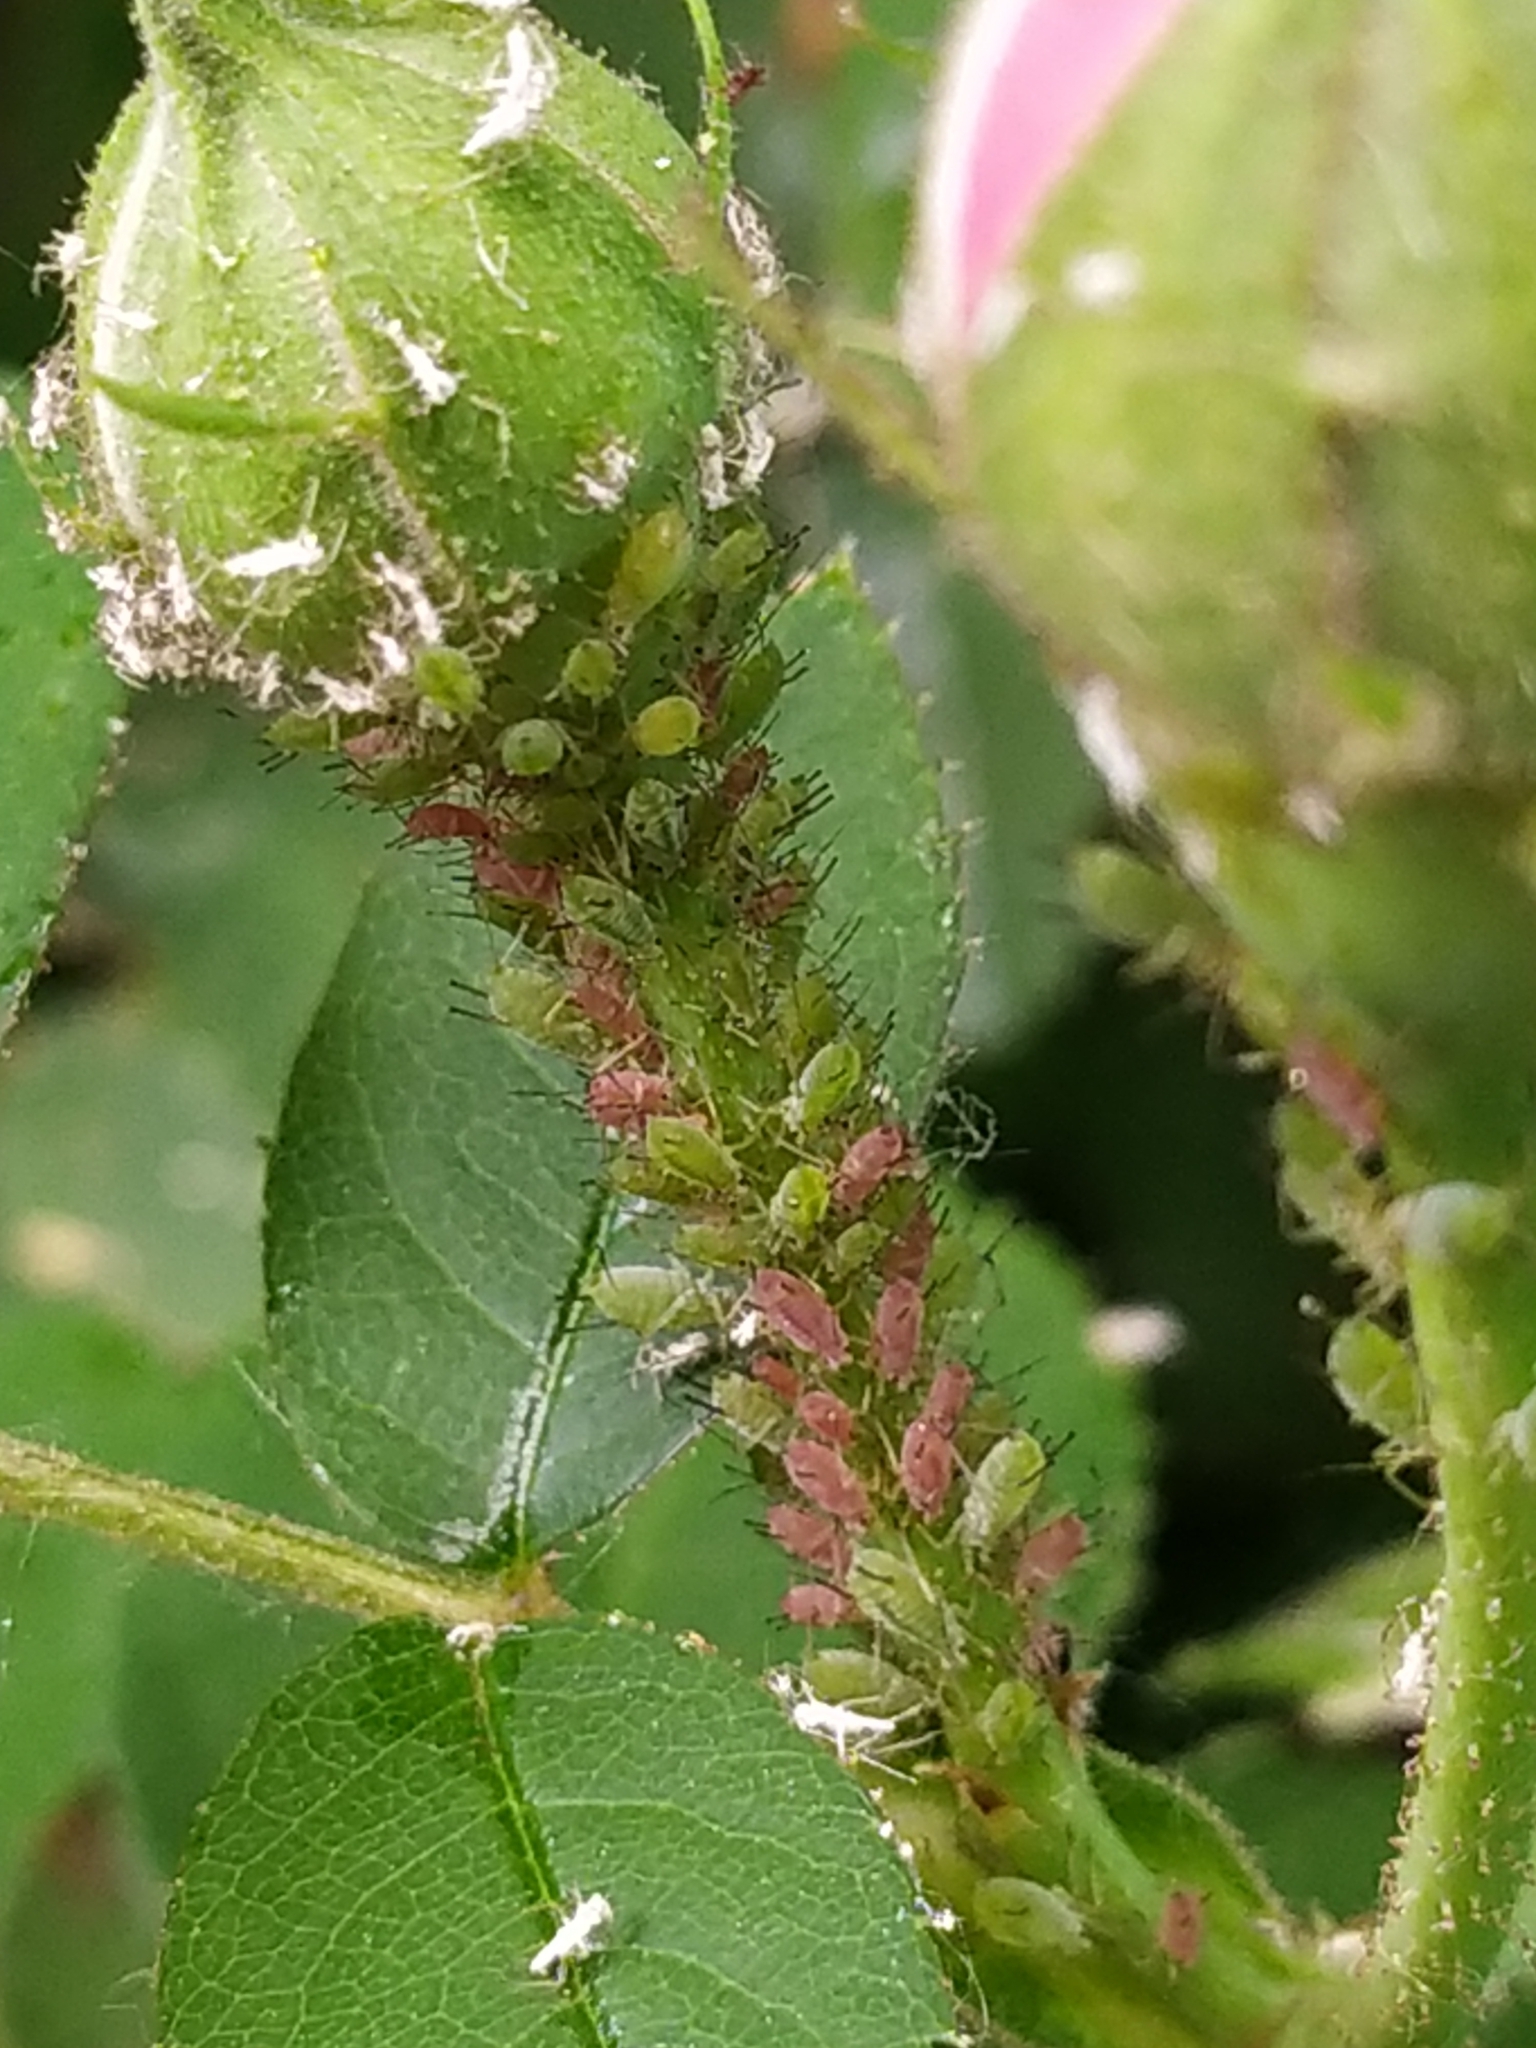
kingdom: Animalia
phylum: Arthropoda
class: Insecta
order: Hemiptera
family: Aphididae
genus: Macrosiphum
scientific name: Macrosiphum rosae
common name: Rose aphid
